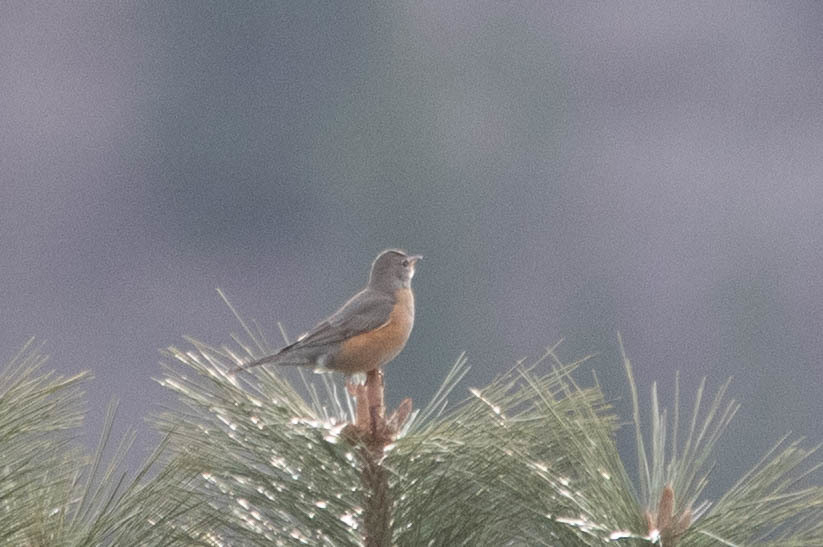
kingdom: Animalia
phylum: Chordata
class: Aves
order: Passeriformes
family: Turdidae
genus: Turdus
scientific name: Turdus migratorius
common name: American robin
